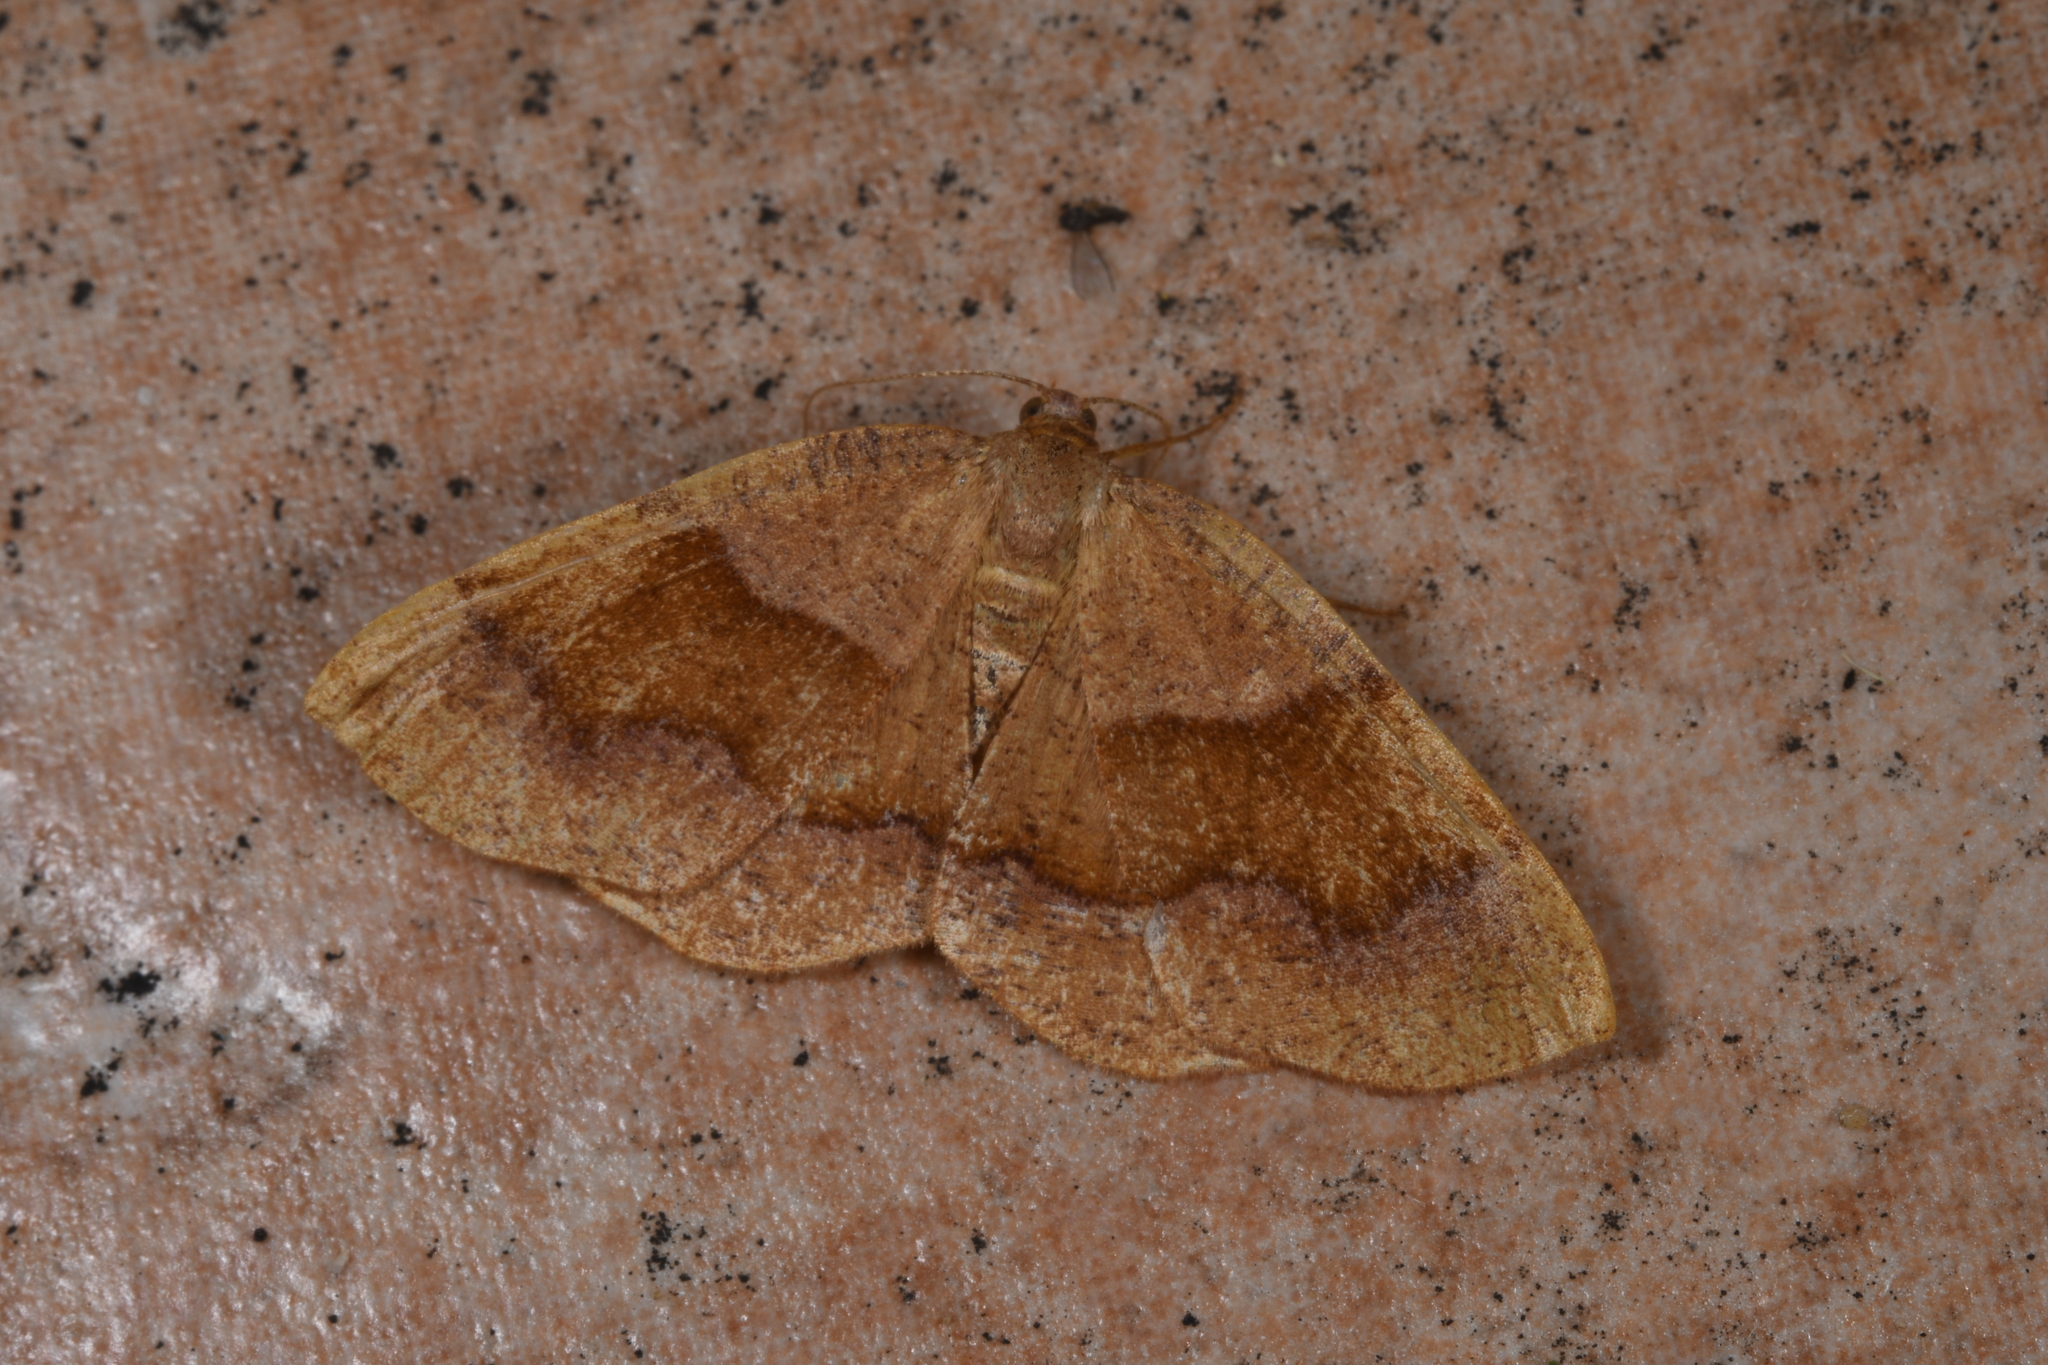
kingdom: Animalia
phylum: Arthropoda
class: Insecta
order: Lepidoptera
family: Geometridae
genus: Plagodis
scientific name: Plagodis pulveraria
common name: Barred umber
